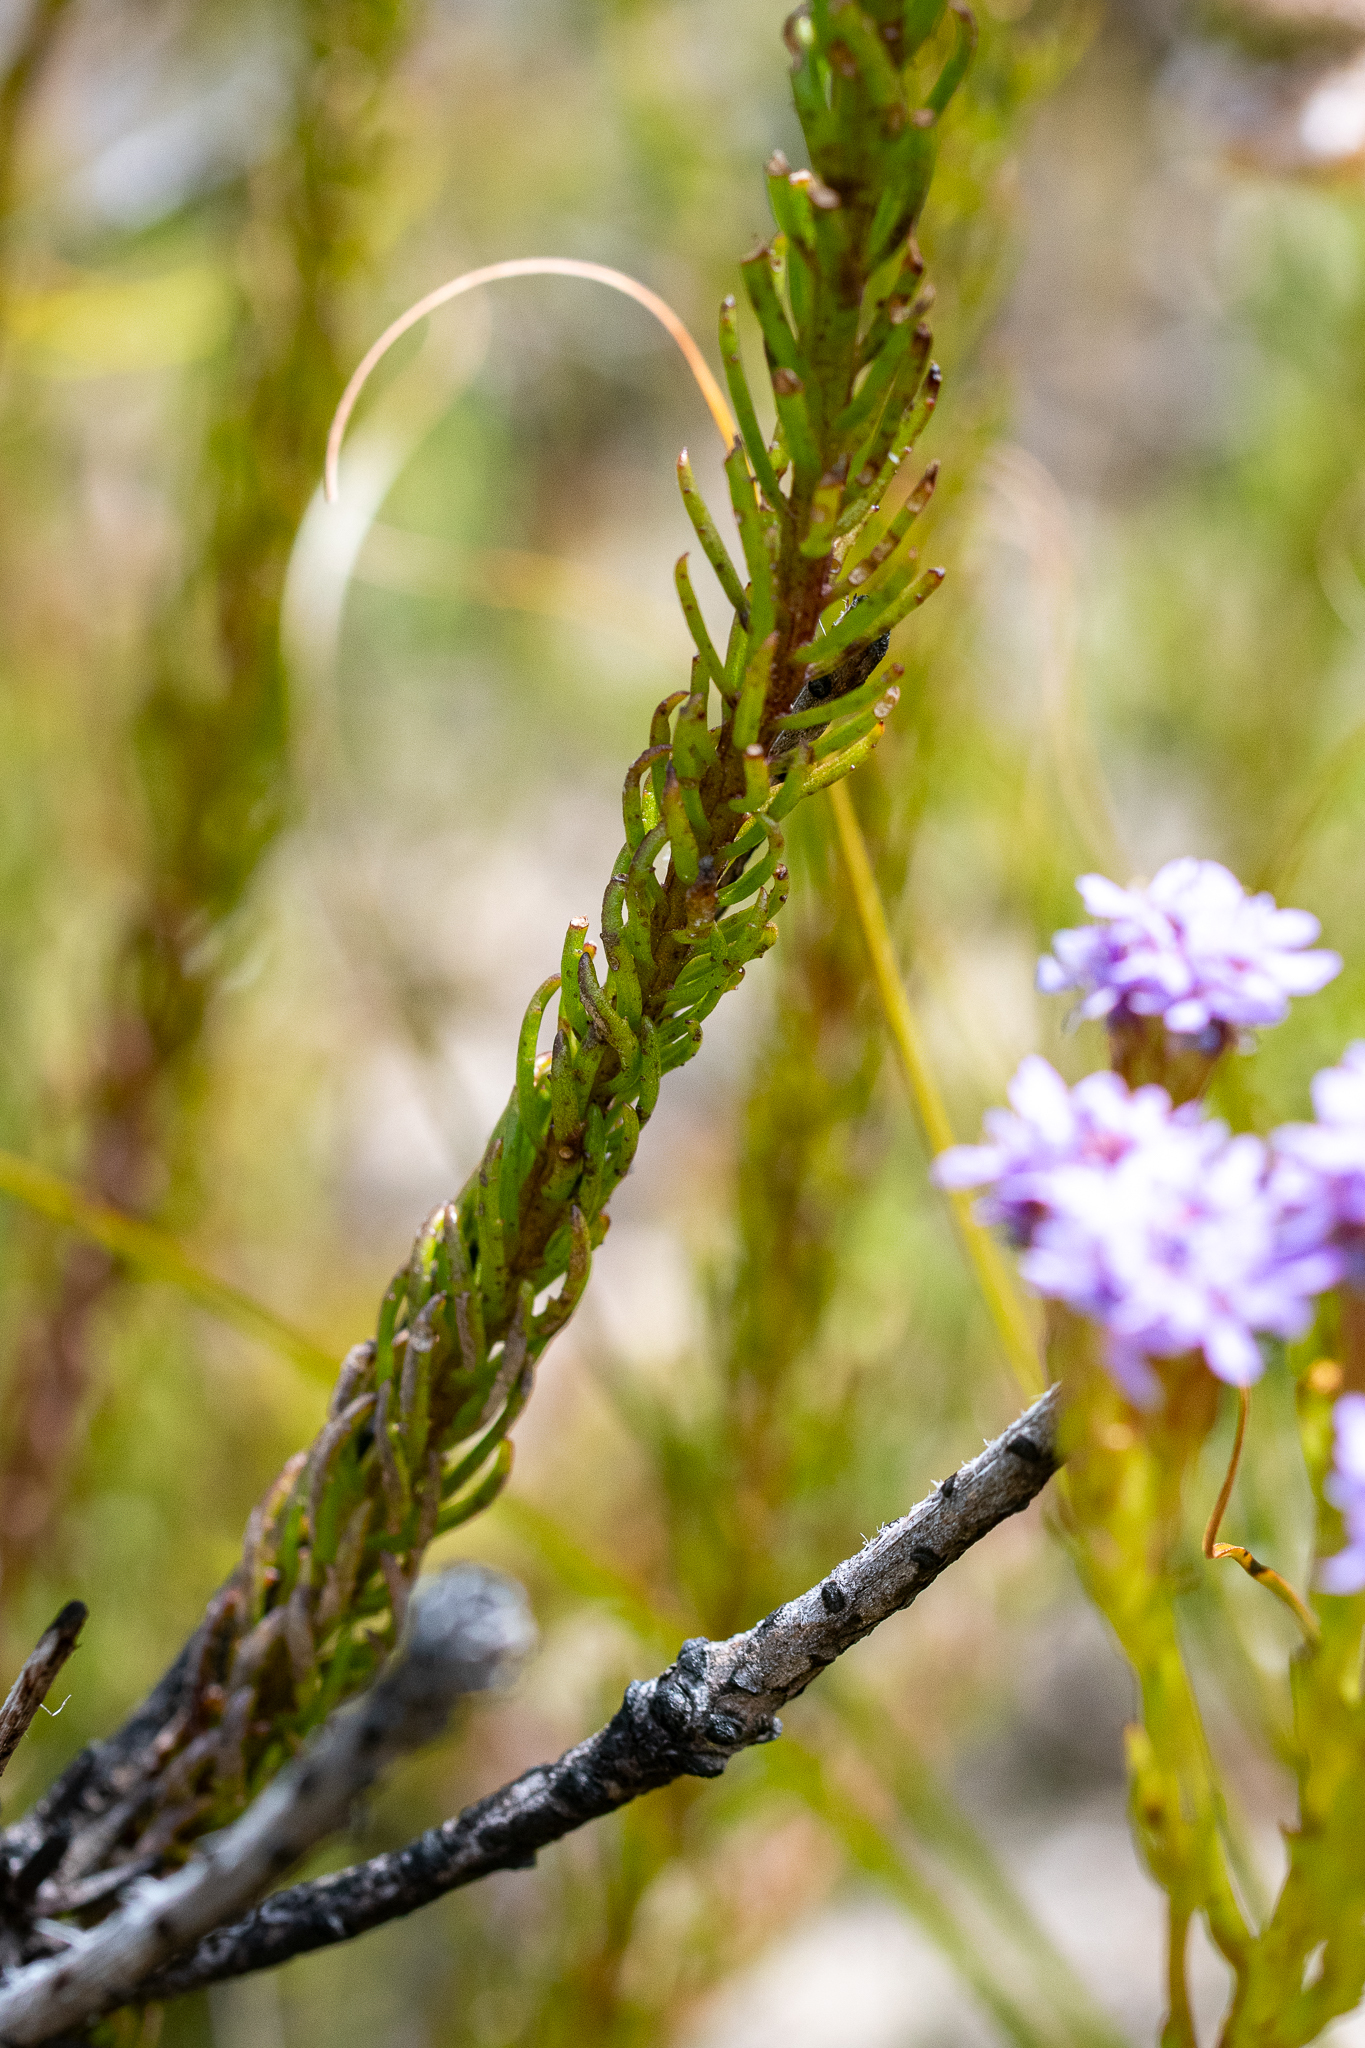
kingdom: Plantae
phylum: Tracheophyta
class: Magnoliopsida
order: Lamiales
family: Scrophulariaceae
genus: Pseudoselago
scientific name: Pseudoselago spuria
